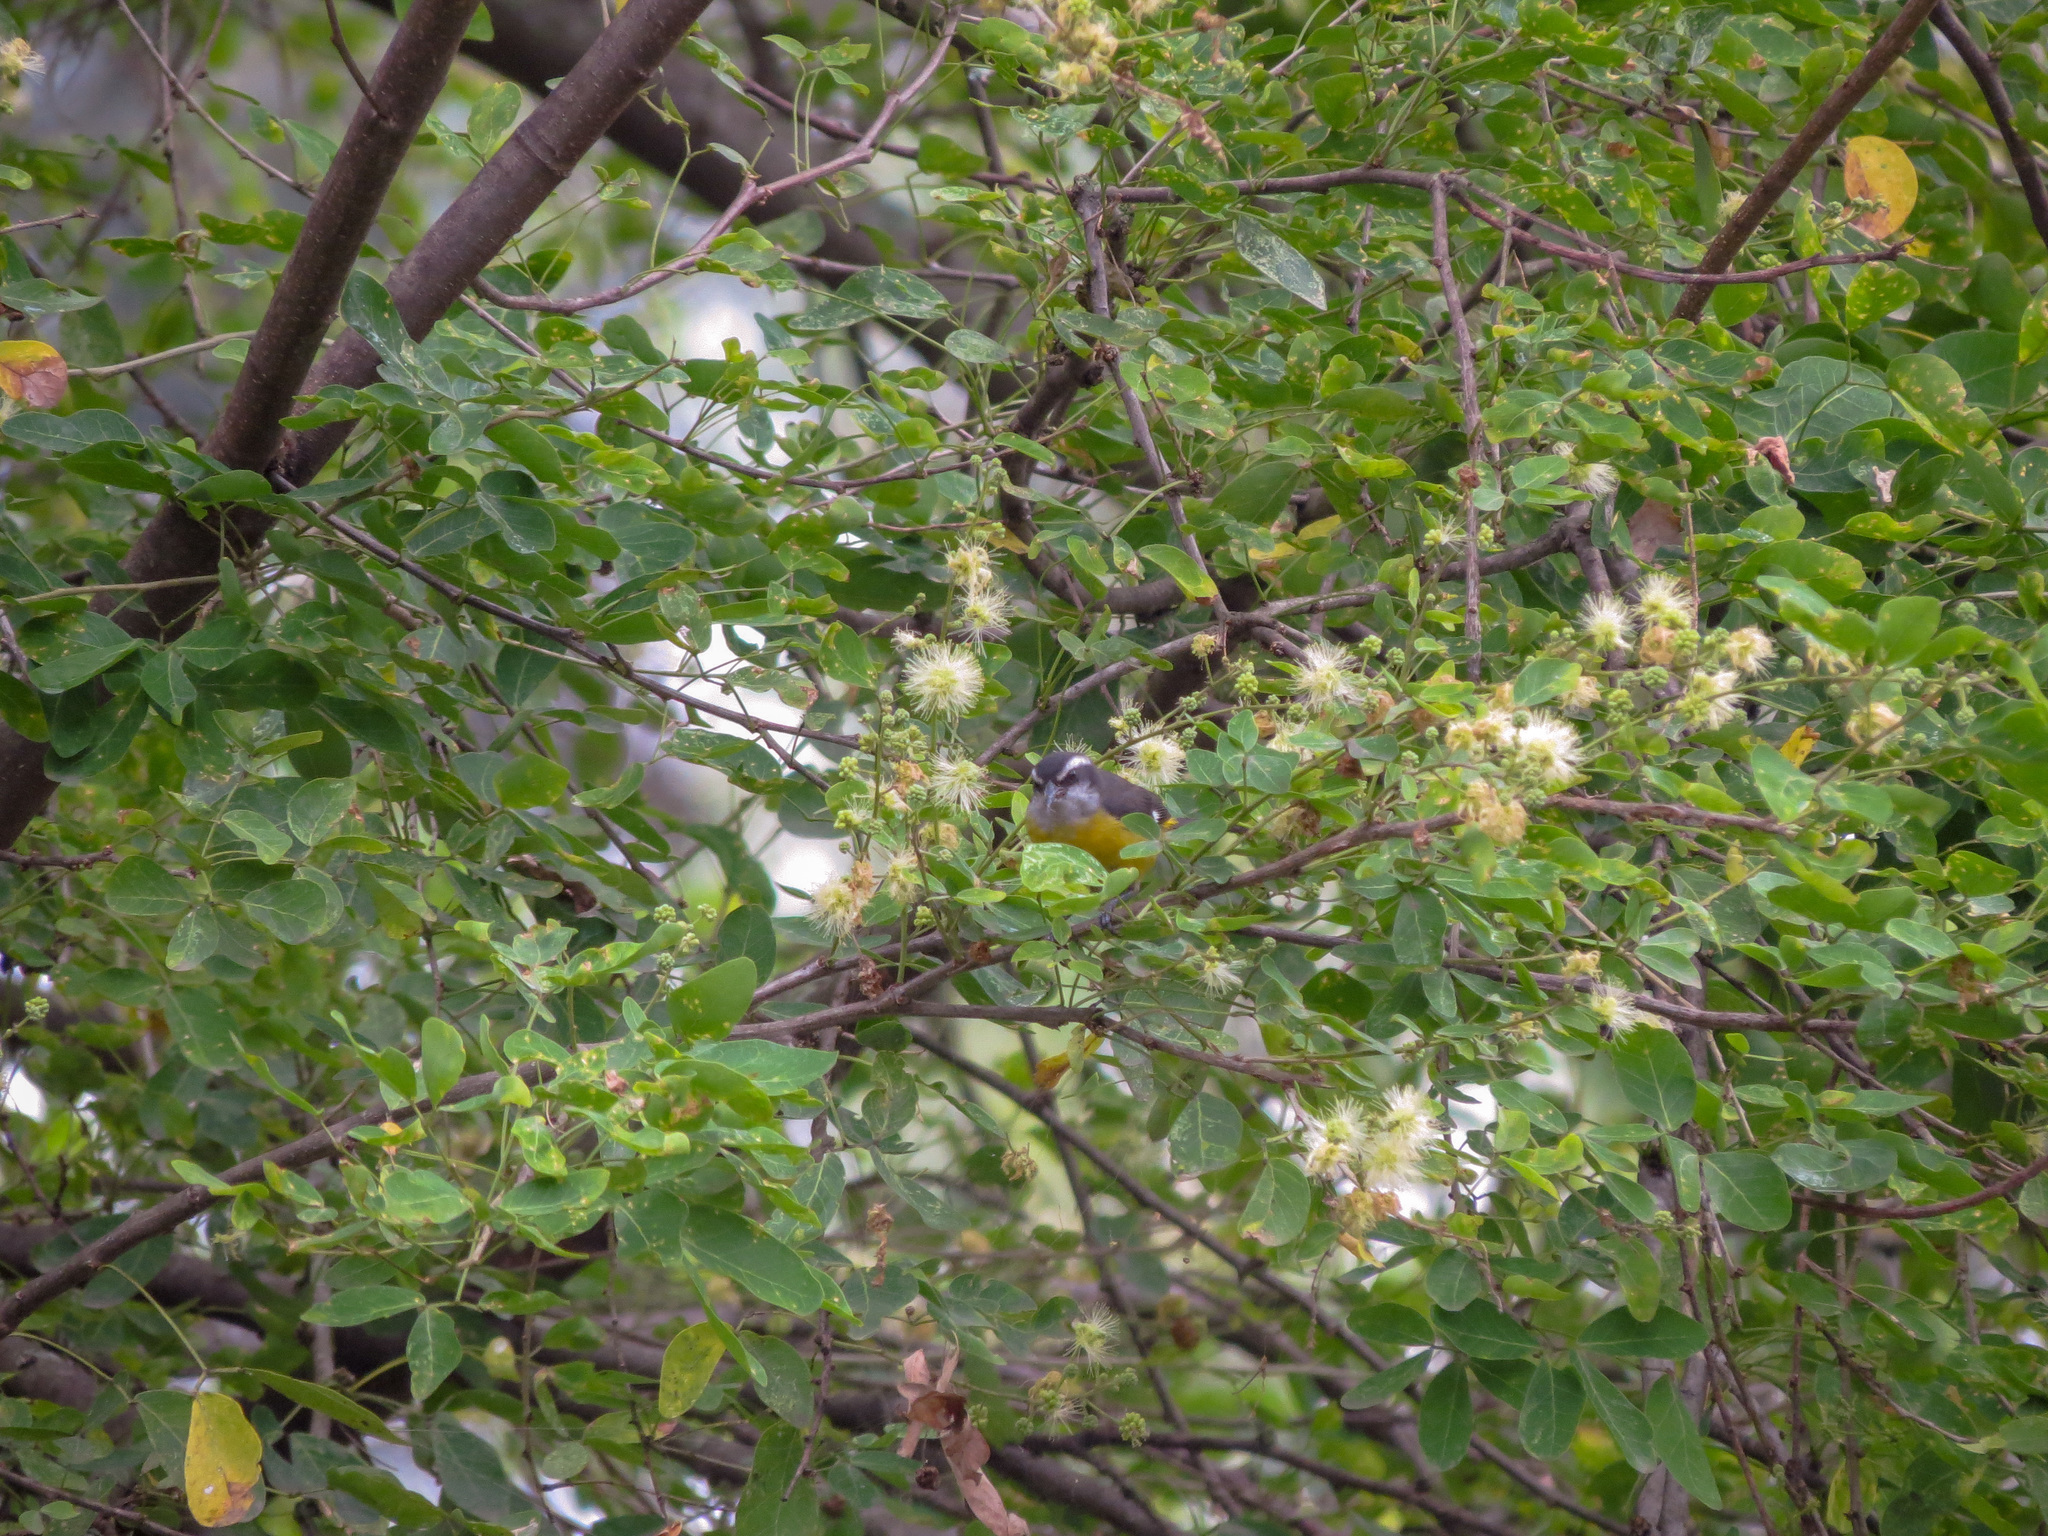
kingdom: Animalia
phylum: Chordata
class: Aves
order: Passeriformes
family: Thraupidae
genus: Coereba
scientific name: Coereba flaveola
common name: Bananaquit
